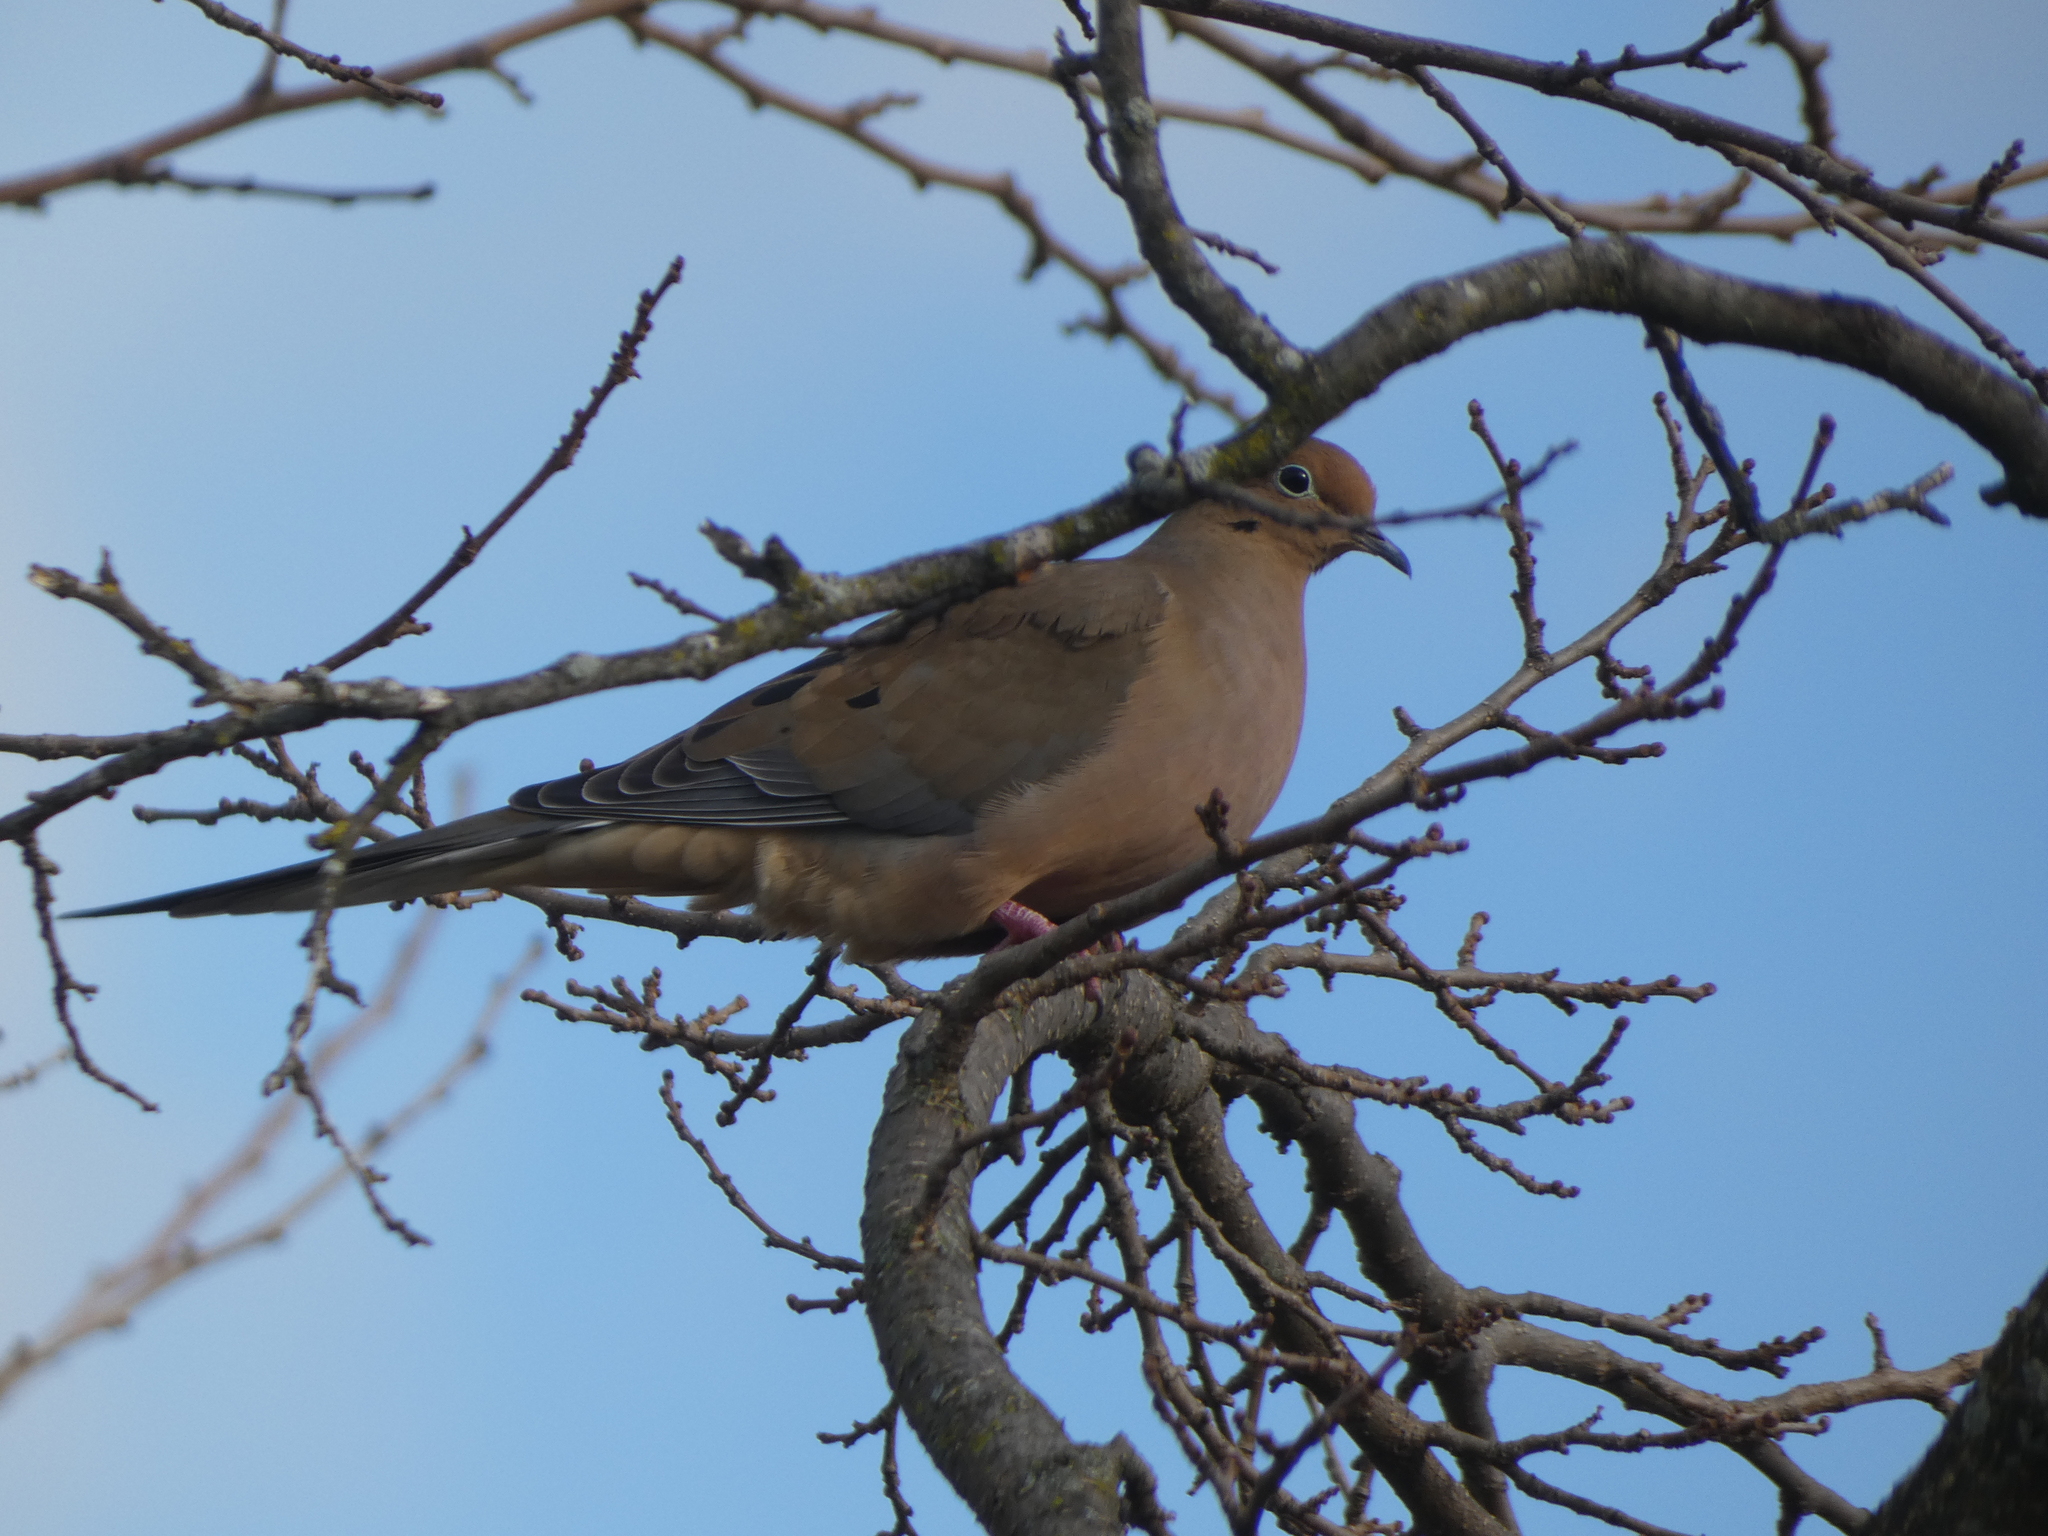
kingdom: Animalia
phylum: Chordata
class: Aves
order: Columbiformes
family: Columbidae
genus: Zenaida
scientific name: Zenaida macroura
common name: Mourning dove
